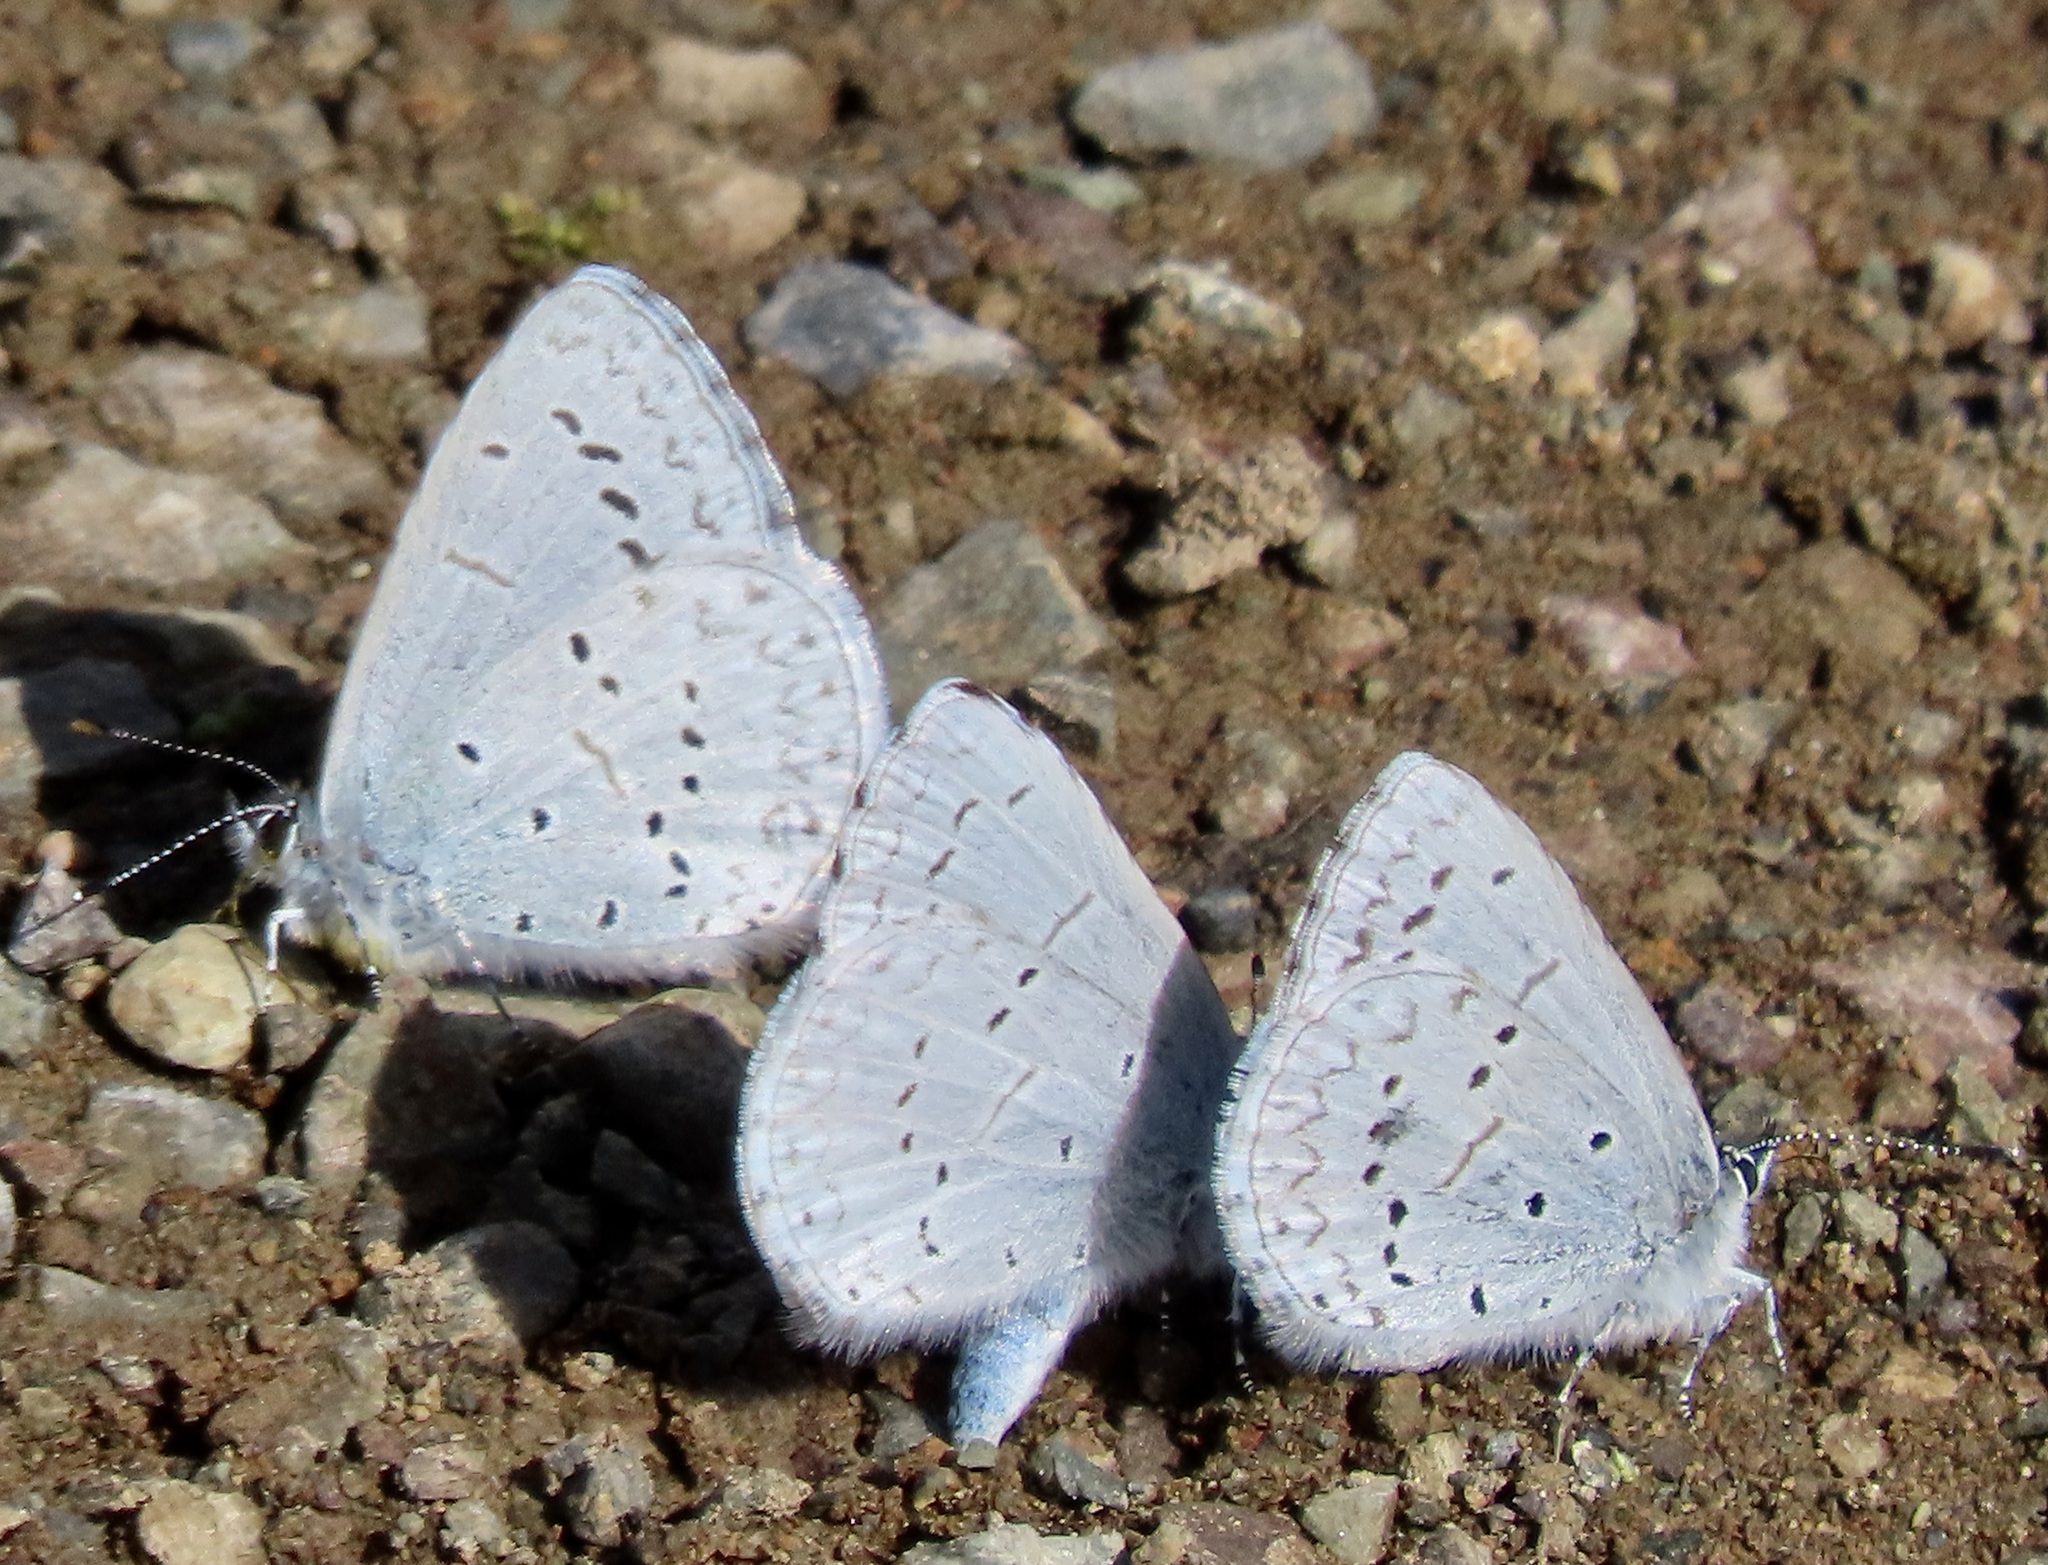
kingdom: Animalia
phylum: Arthropoda
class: Insecta
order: Lepidoptera
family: Lycaenidae
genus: Celastrina
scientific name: Celastrina ladon
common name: Spring azure
